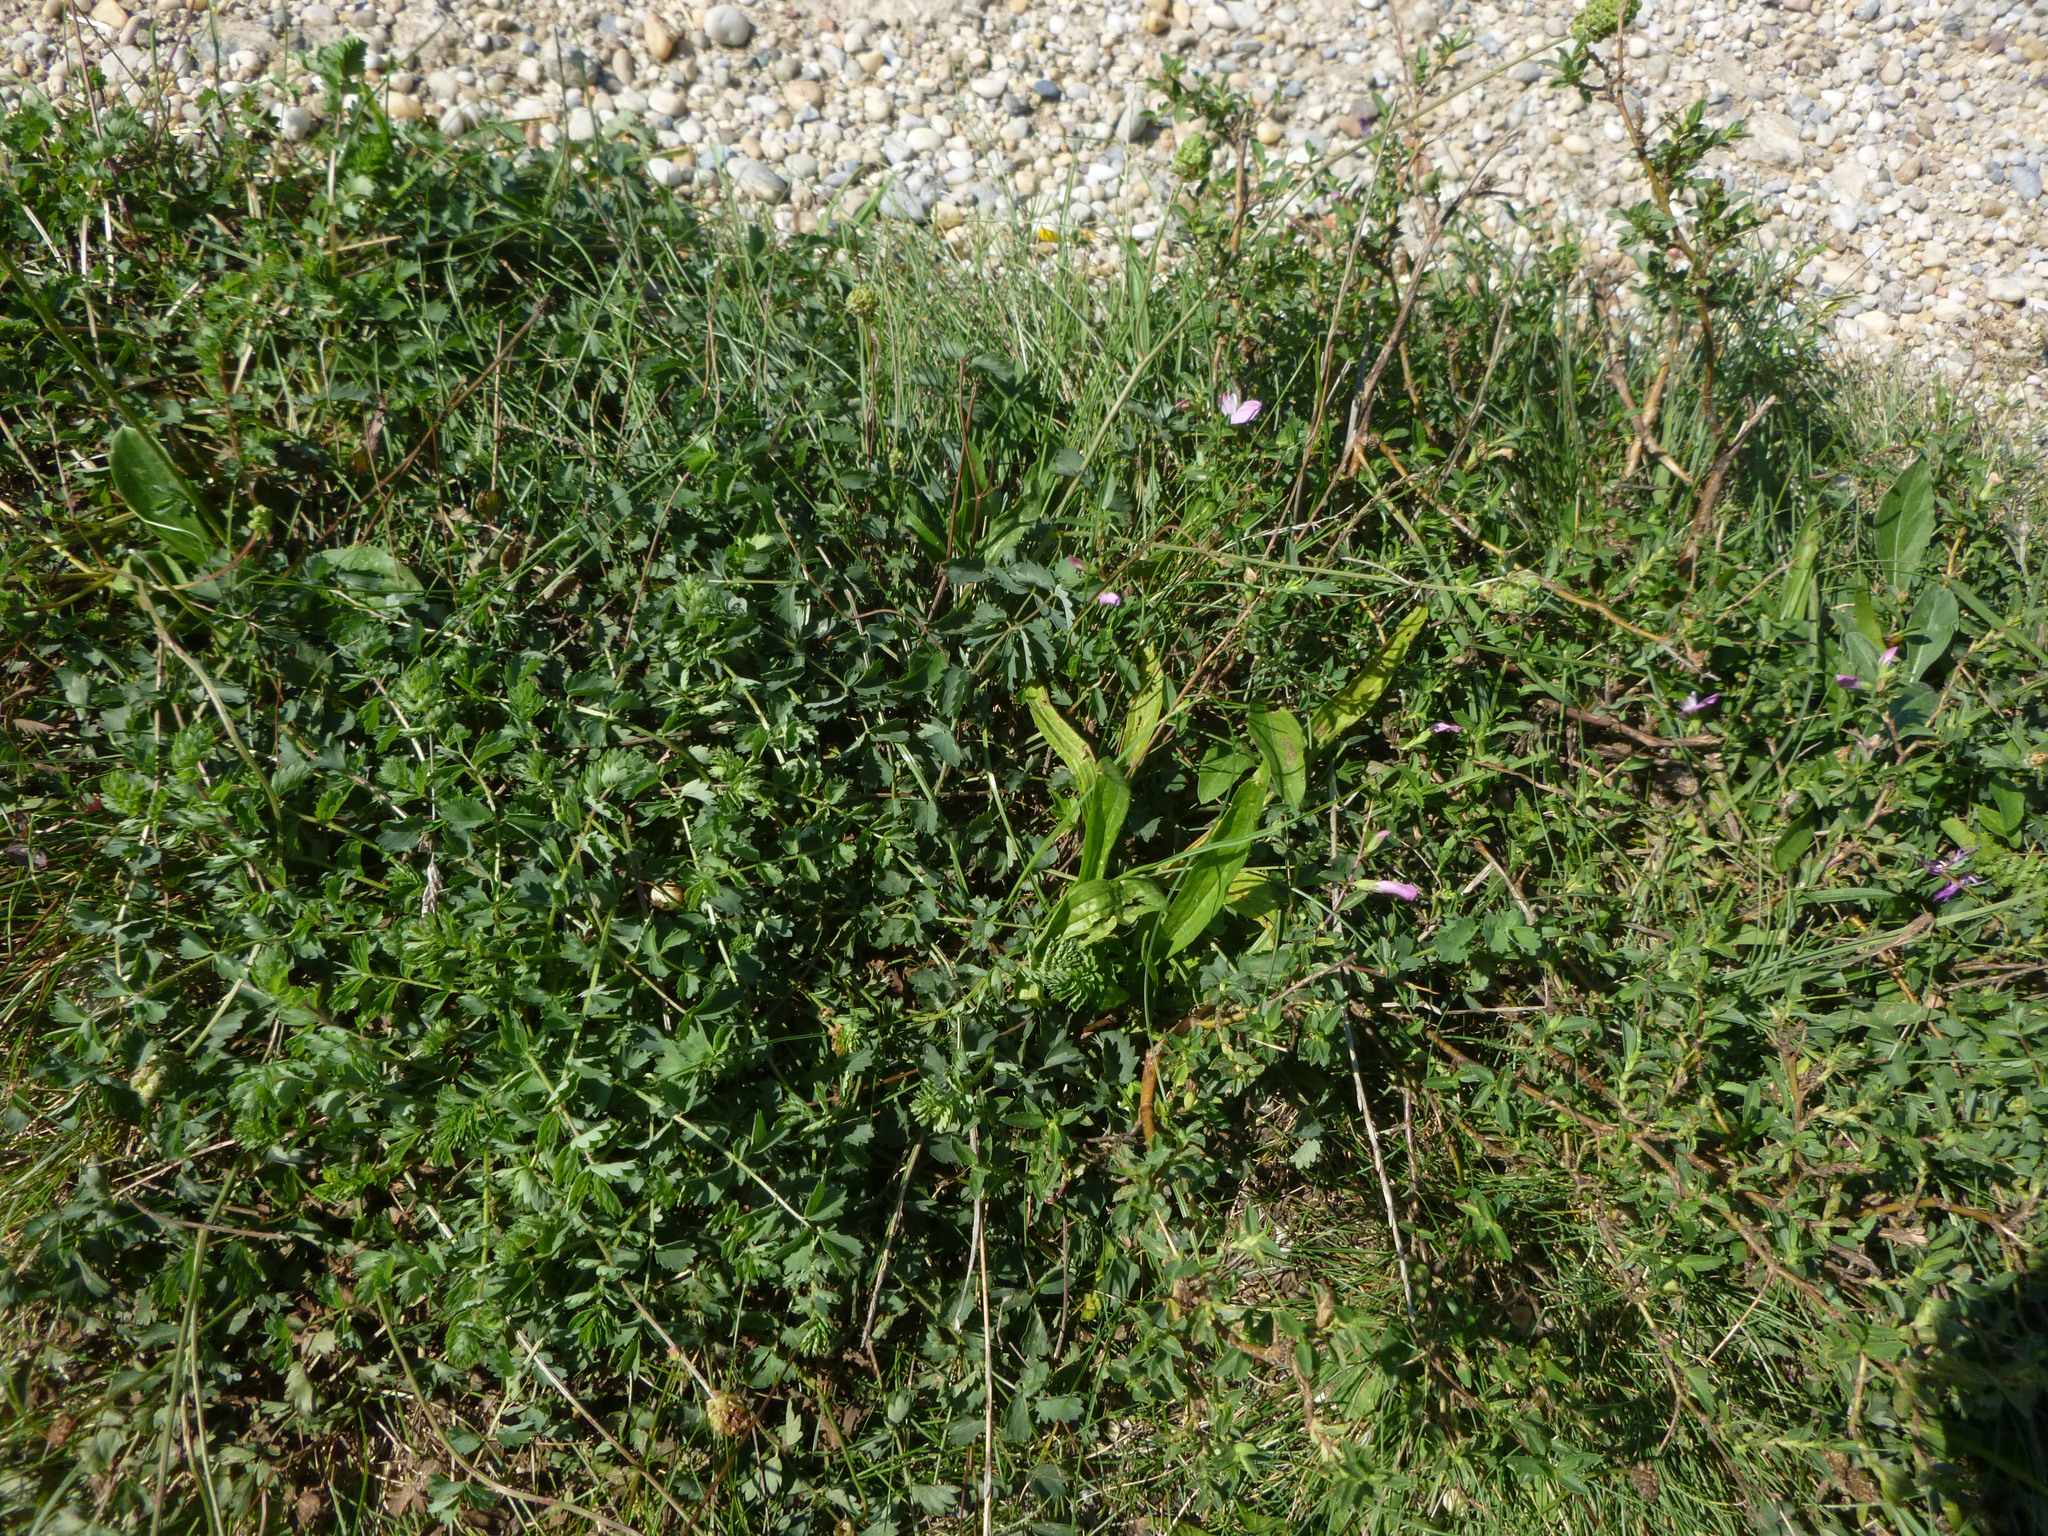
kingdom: Plantae
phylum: Tracheophyta
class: Magnoliopsida
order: Rosales
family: Rosaceae
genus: Poterium
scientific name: Poterium sanguisorba
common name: Salad burnet
